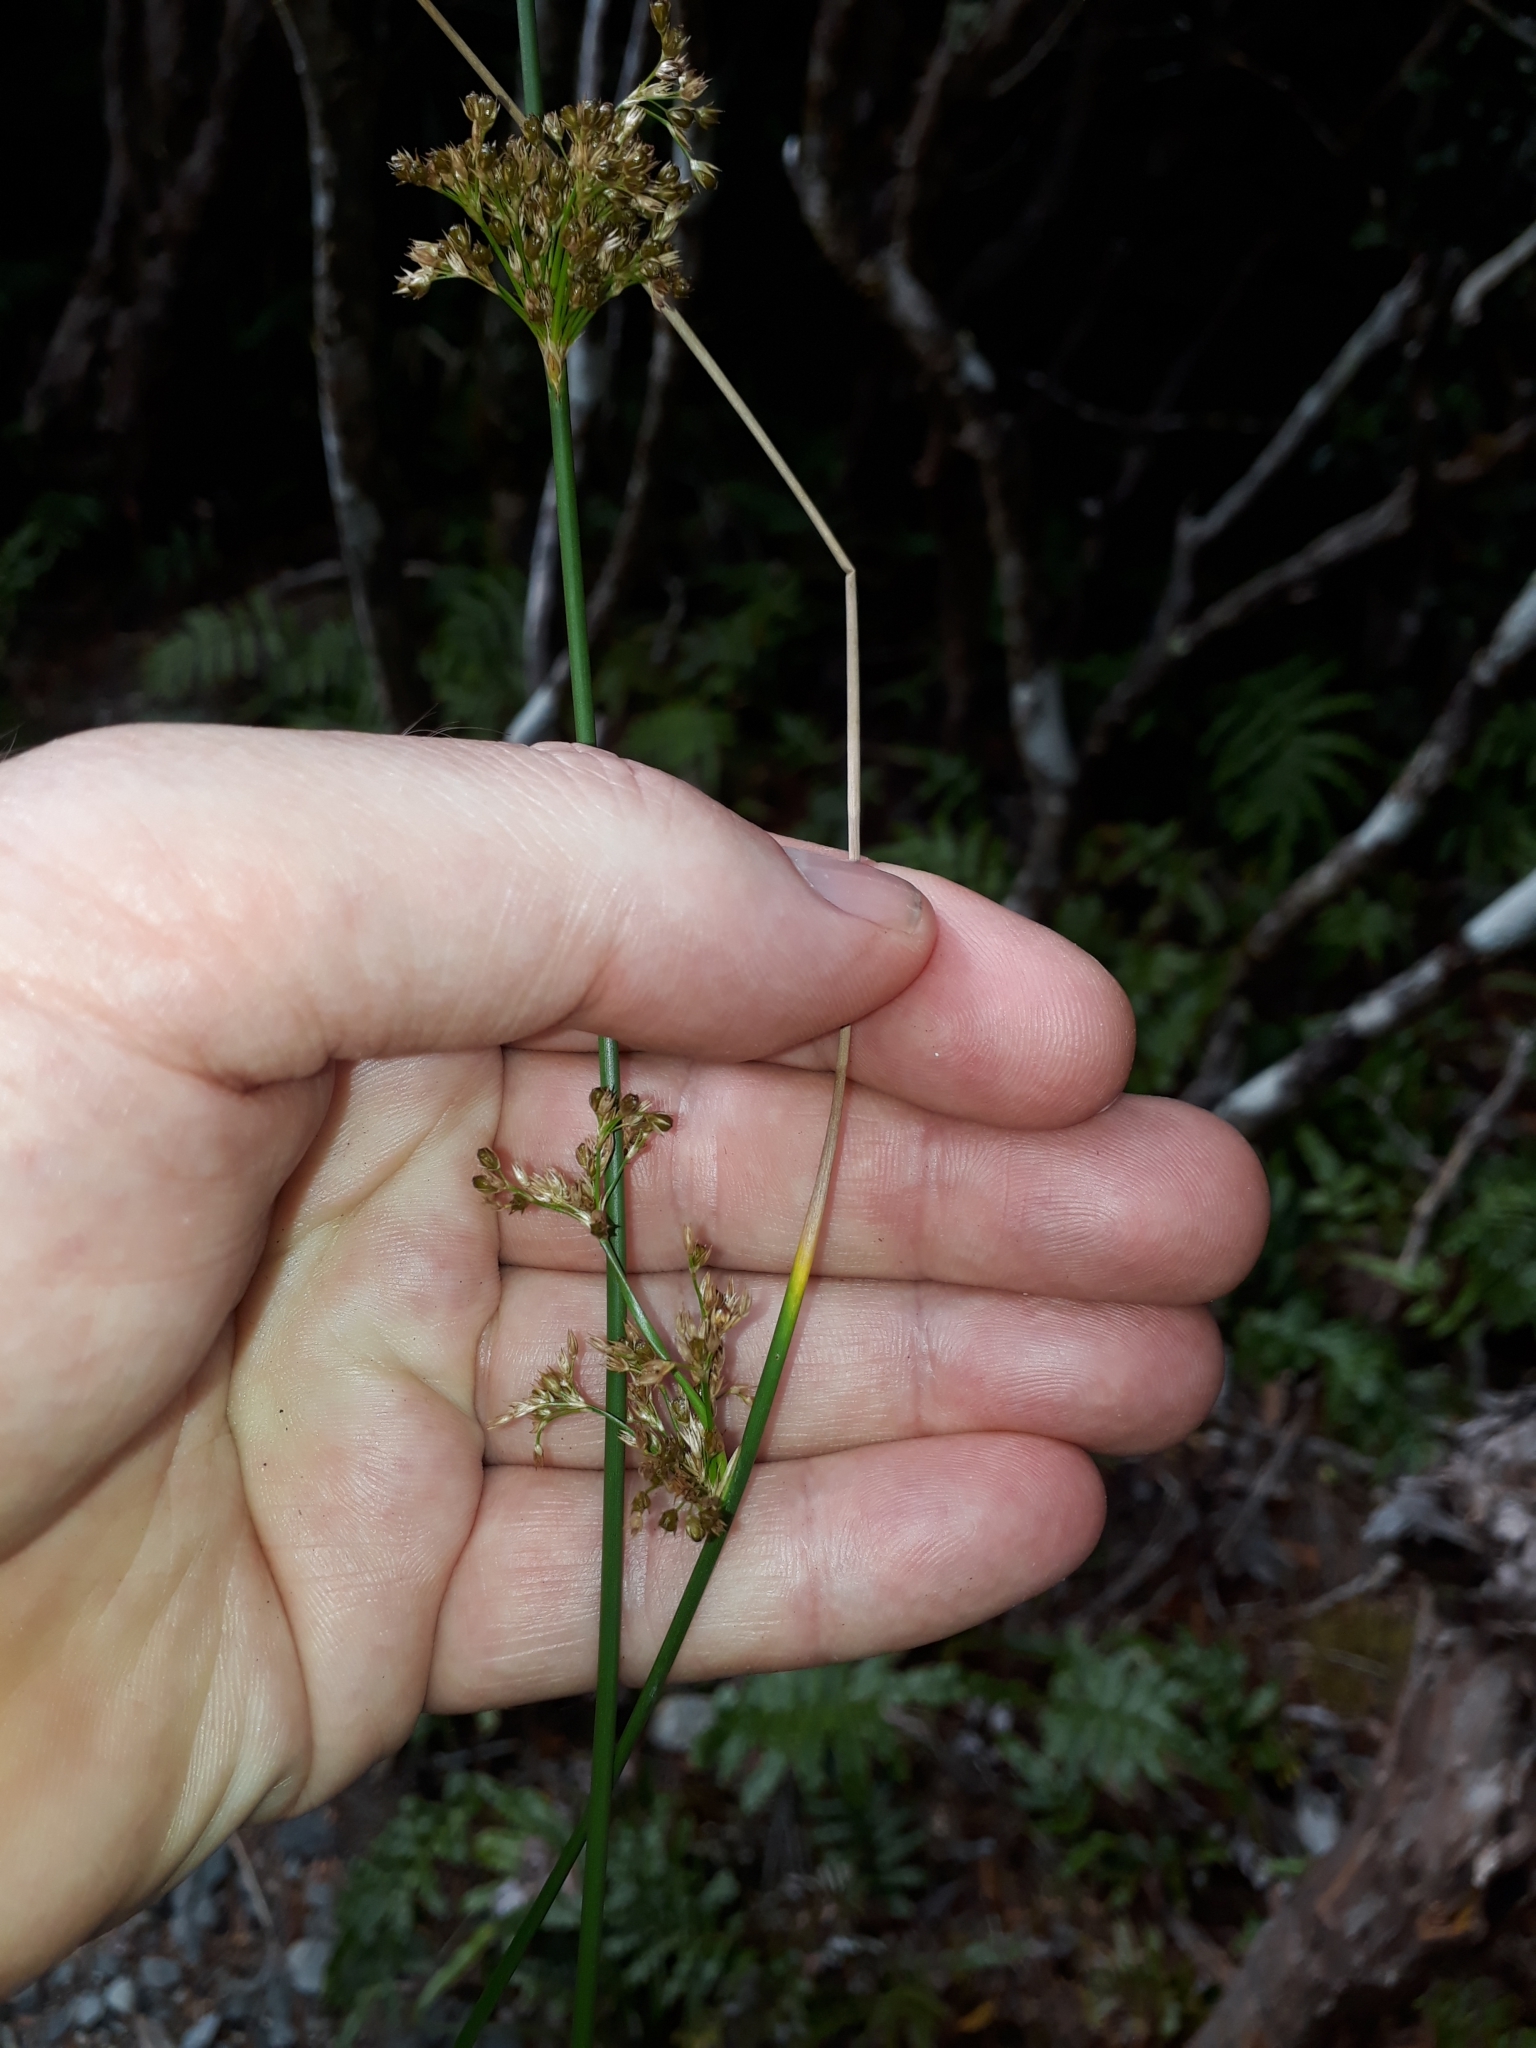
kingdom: Plantae
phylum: Tracheophyta
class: Liliopsida
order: Poales
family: Juncaceae
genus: Juncus
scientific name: Juncus effusus
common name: Soft rush
